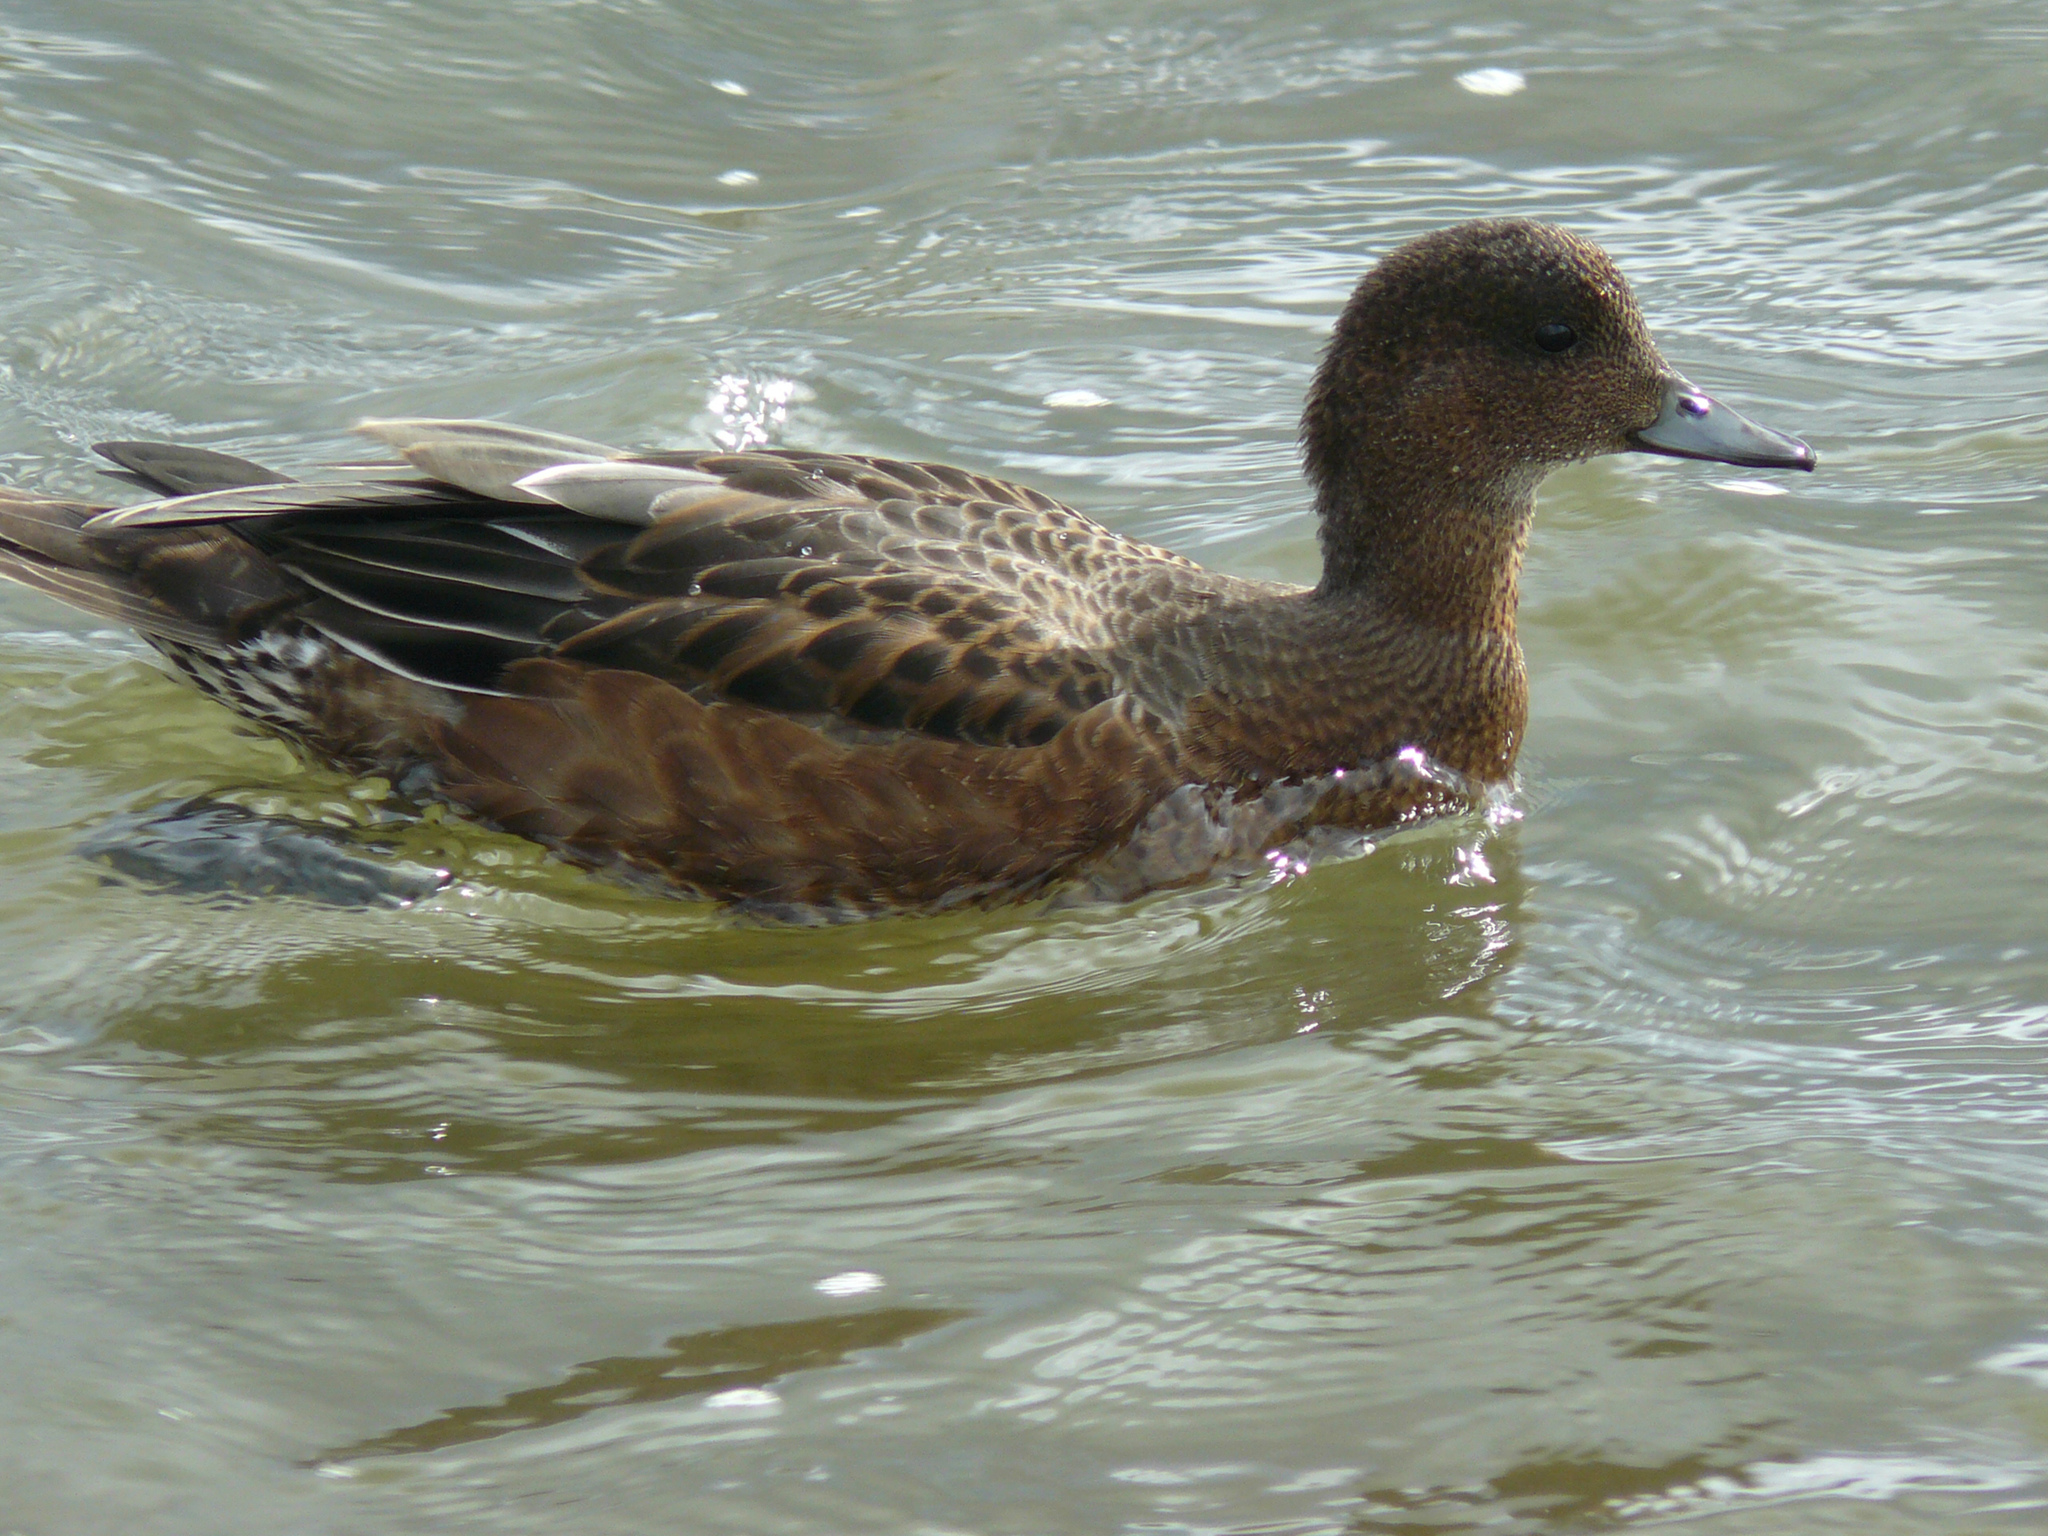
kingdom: Animalia
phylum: Chordata
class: Aves
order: Anseriformes
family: Anatidae
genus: Mareca
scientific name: Mareca penelope
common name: Eurasian wigeon
